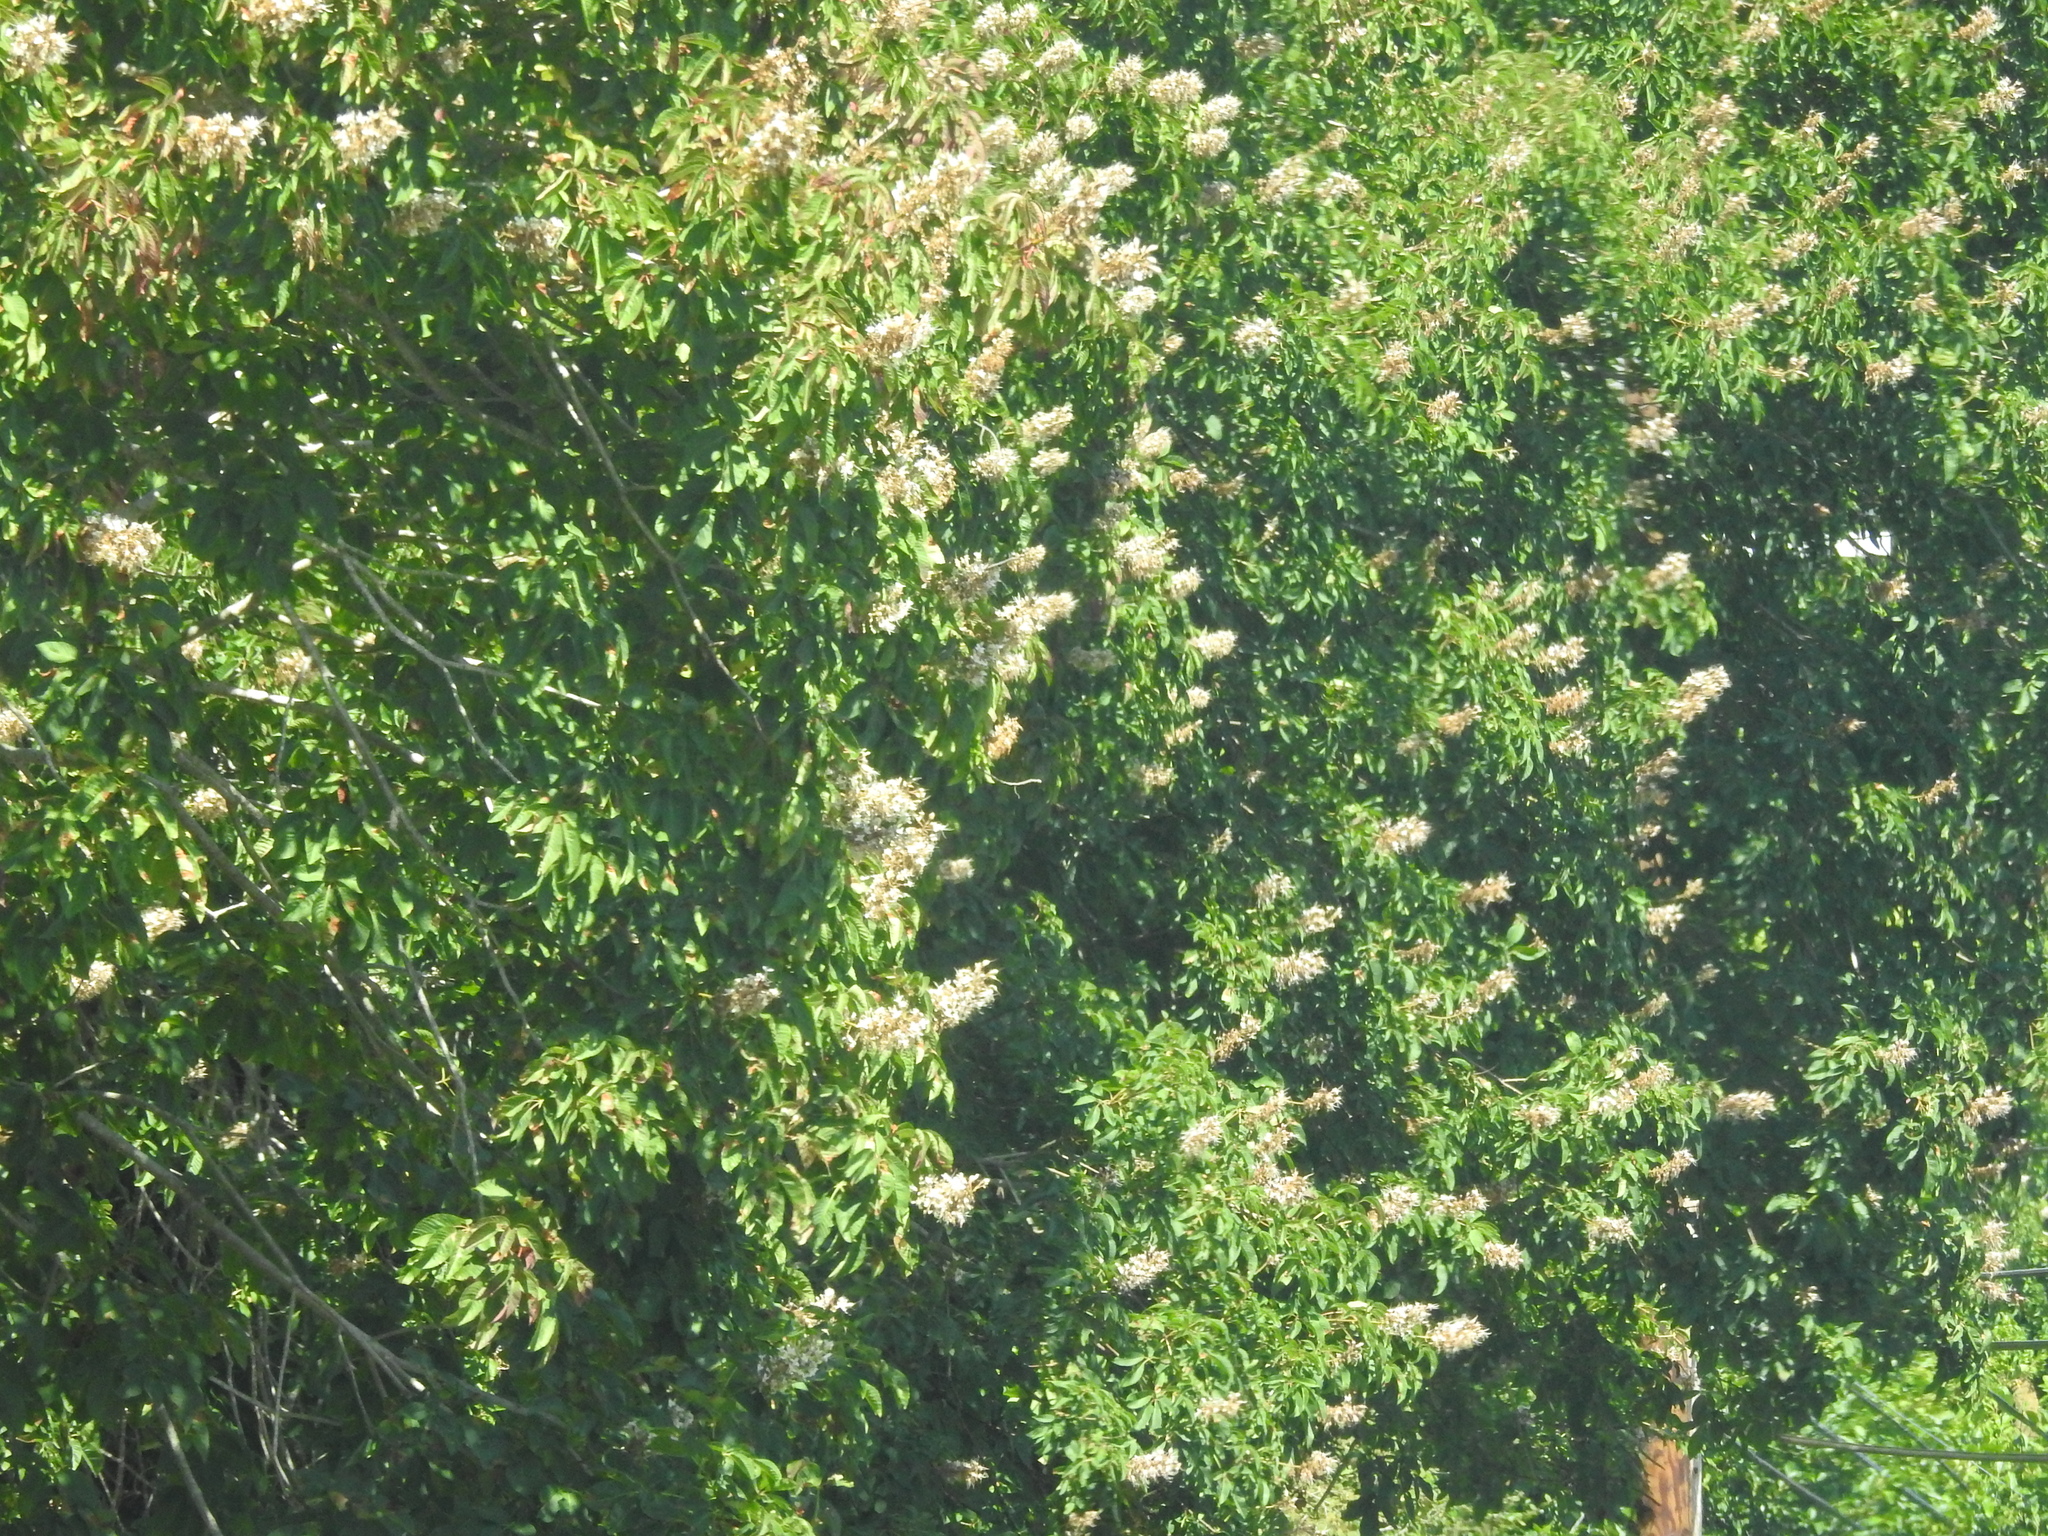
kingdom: Plantae
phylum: Tracheophyta
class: Magnoliopsida
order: Sapindales
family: Sapindaceae
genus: Aesculus
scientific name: Aesculus californica
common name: California buckeye
